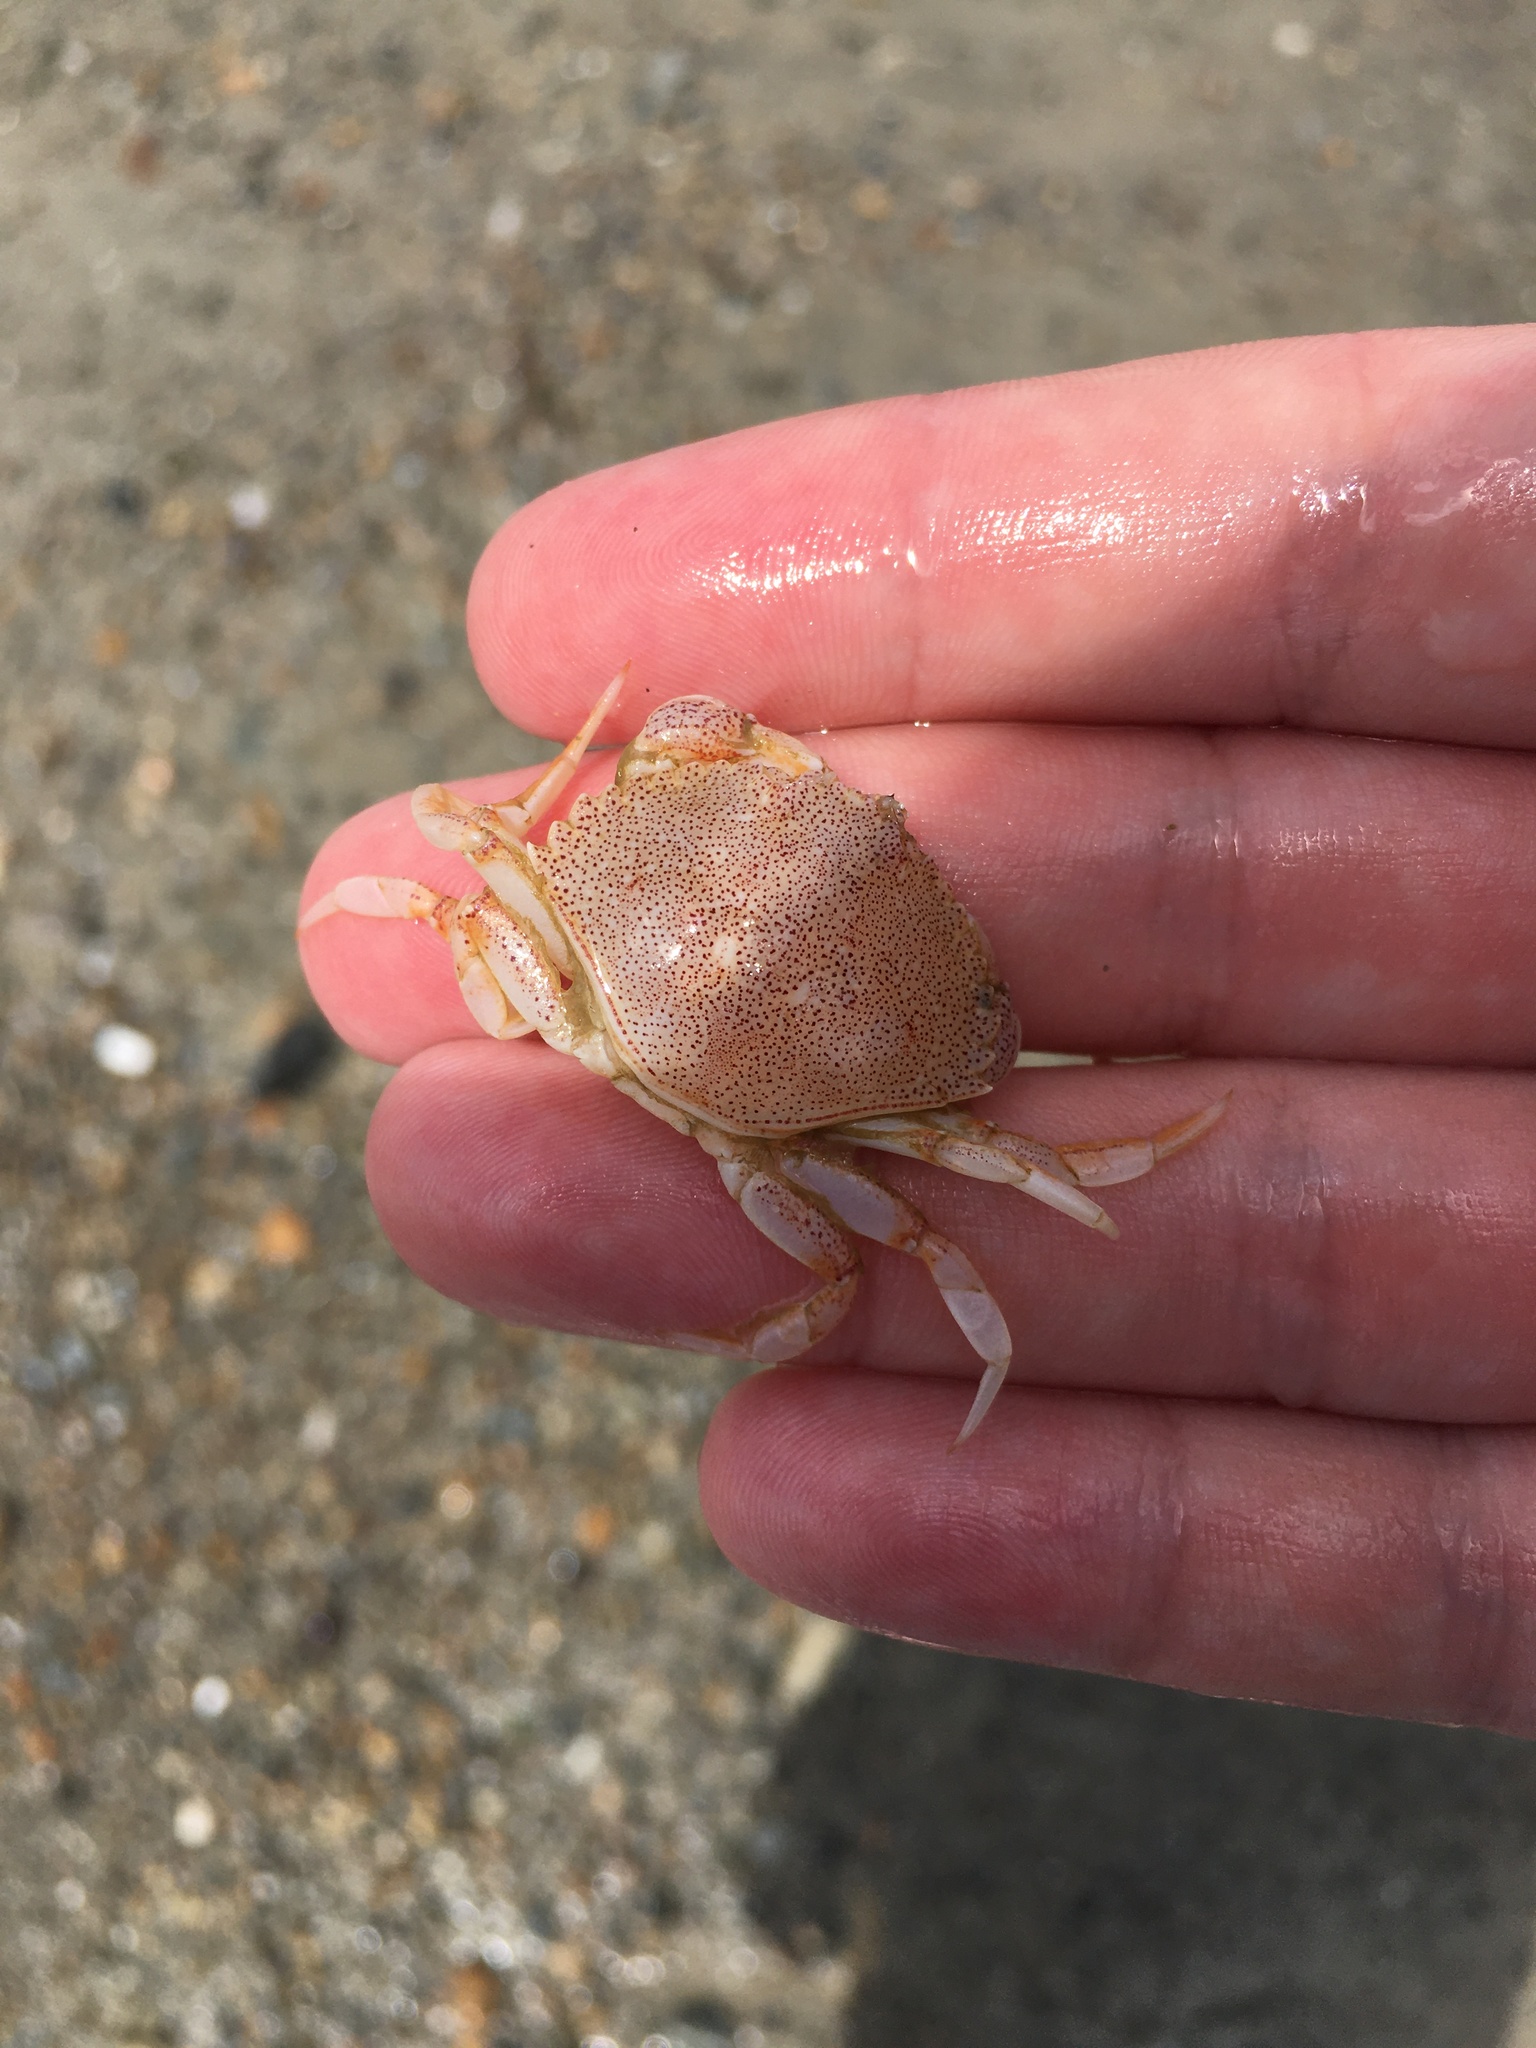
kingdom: Animalia
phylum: Arthropoda
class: Malacostraca
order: Decapoda
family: Cancridae
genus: Cancer
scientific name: Cancer irroratus
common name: Atlantic rock crab
